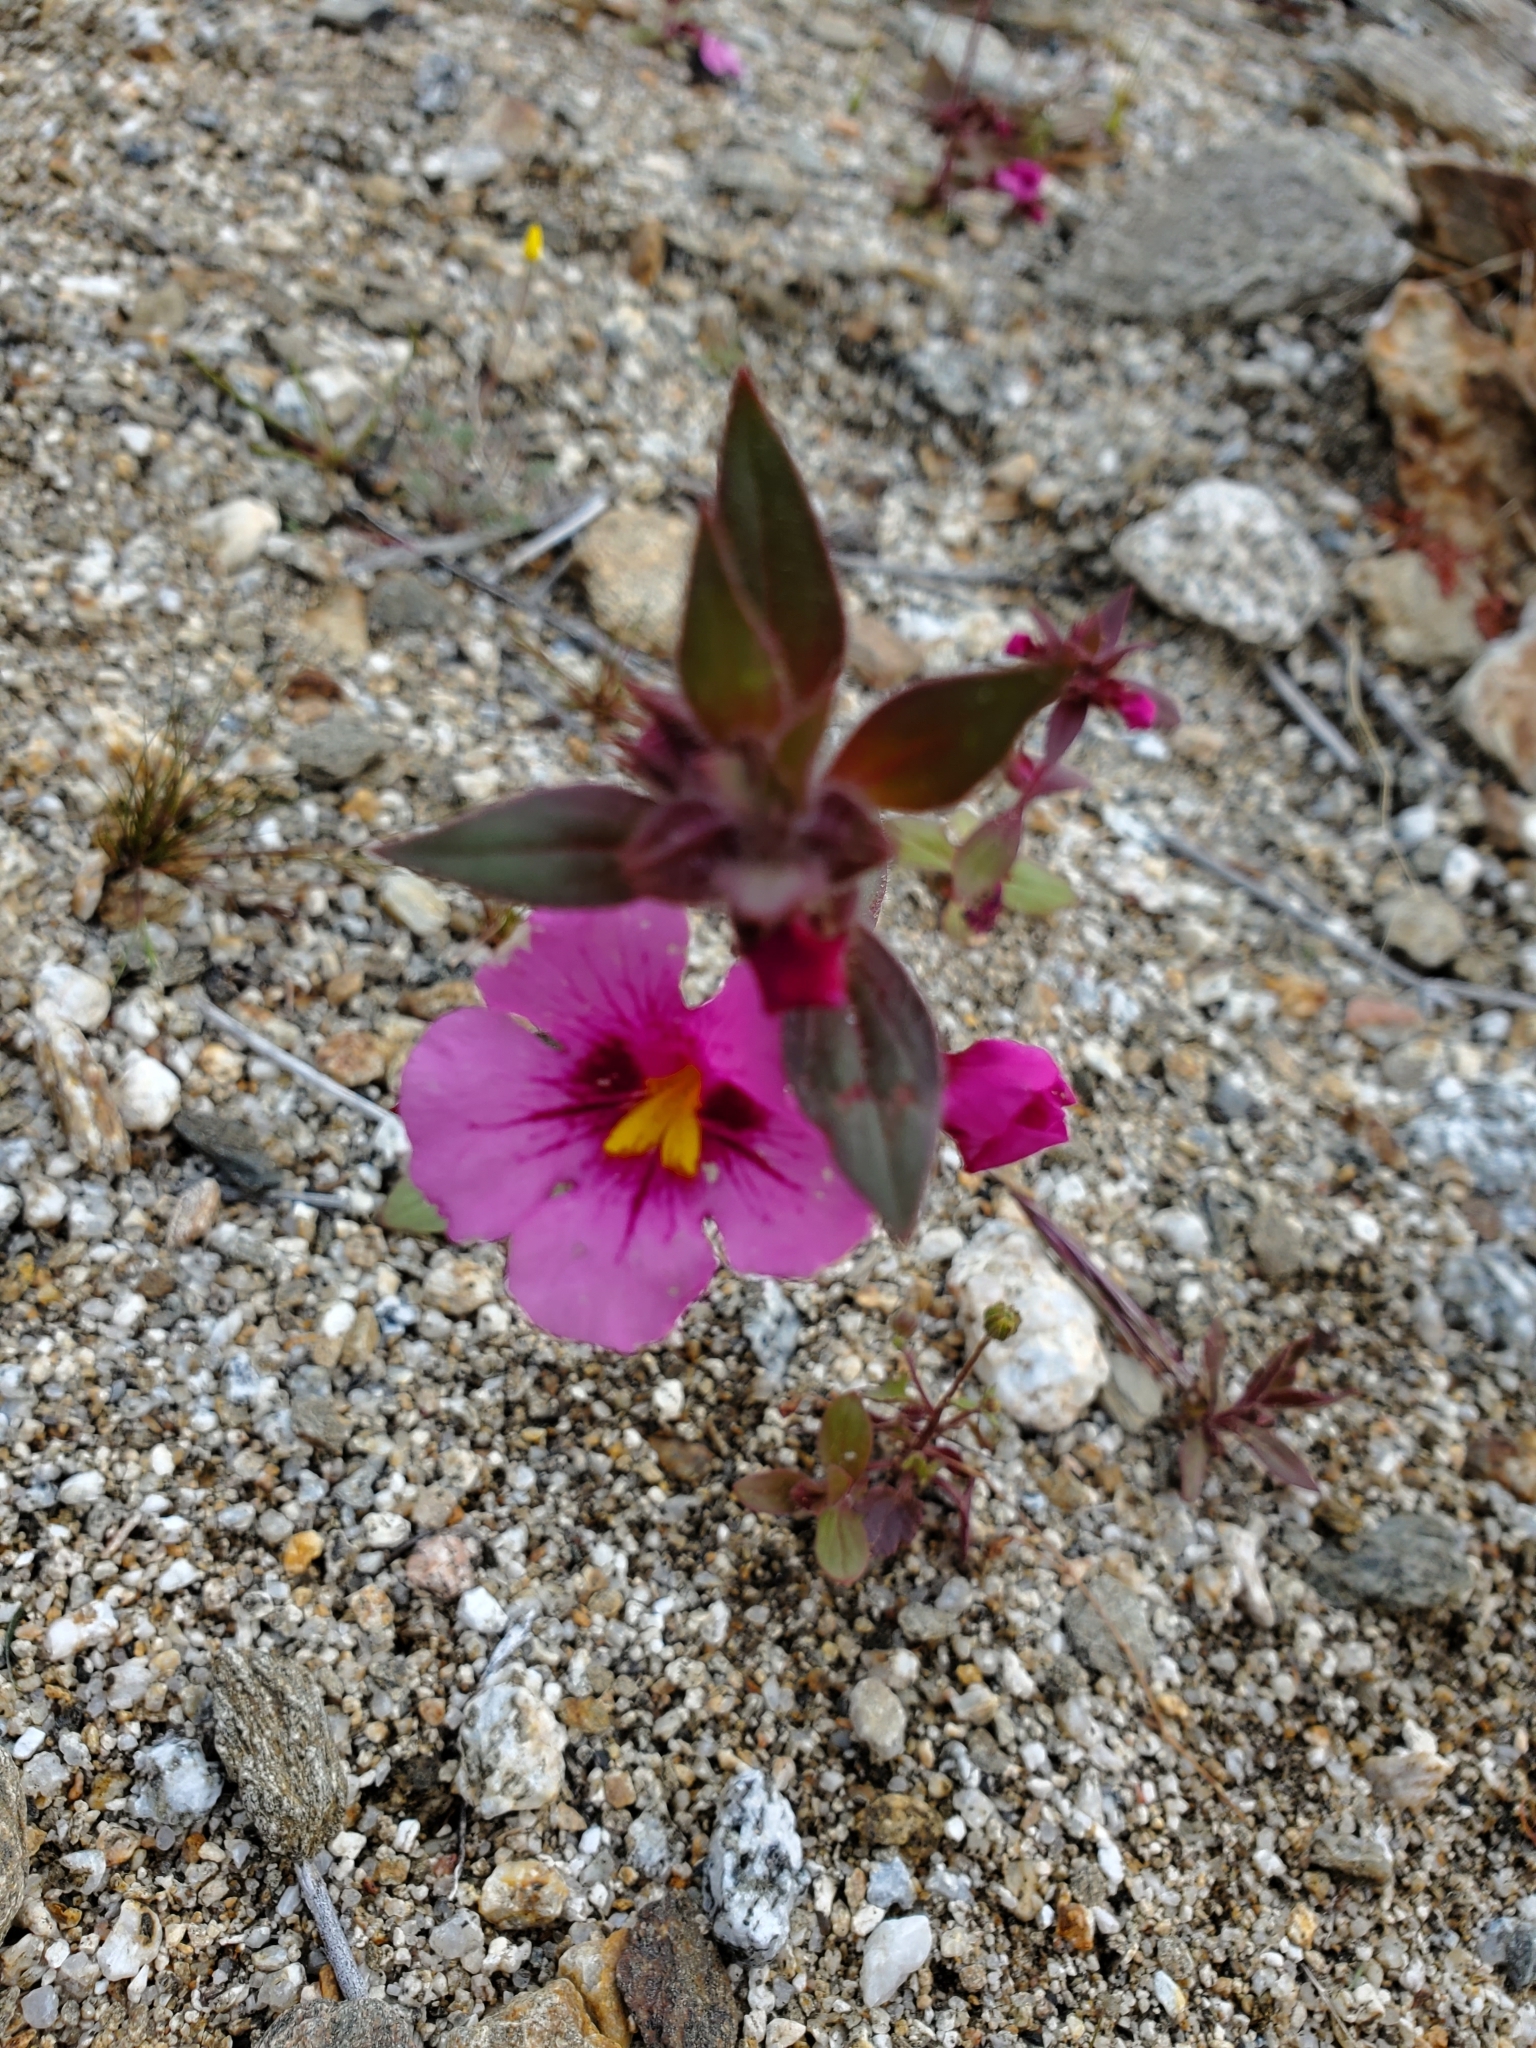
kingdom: Plantae
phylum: Tracheophyta
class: Magnoliopsida
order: Lamiales
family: Phrymaceae
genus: Diplacus
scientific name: Diplacus bigelovii
